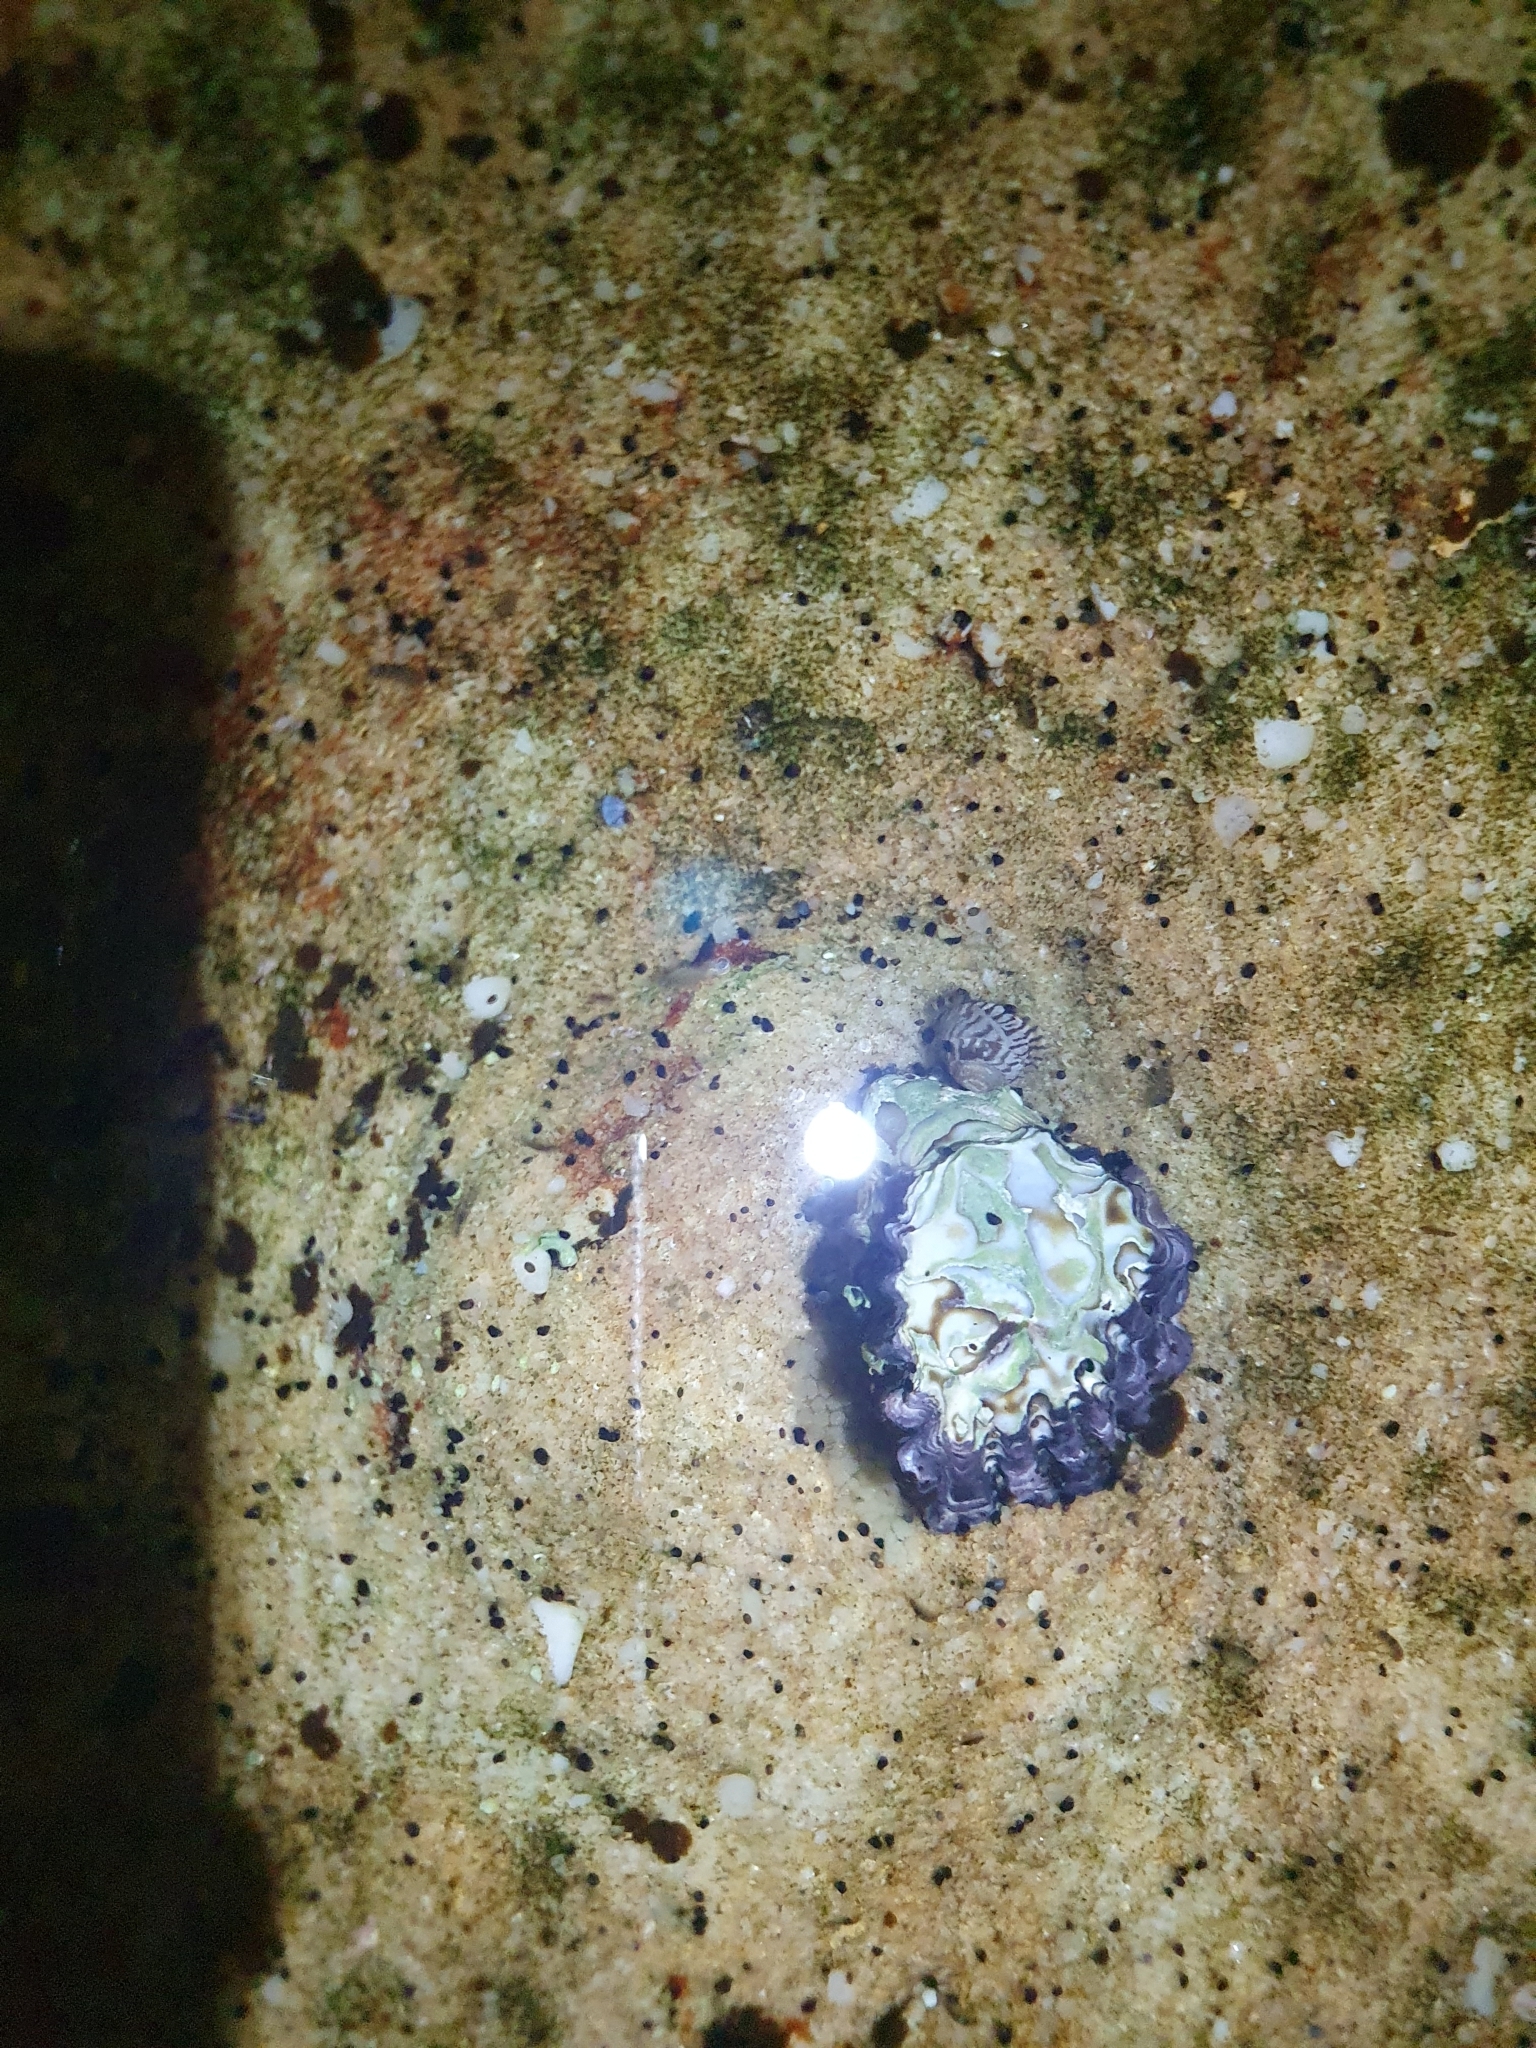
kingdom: Animalia
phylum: Mollusca
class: Bivalvia
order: Ostreida
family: Ostreidae
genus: Saccostrea
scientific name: Saccostrea glomerata
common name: Sydney cupped oyster
